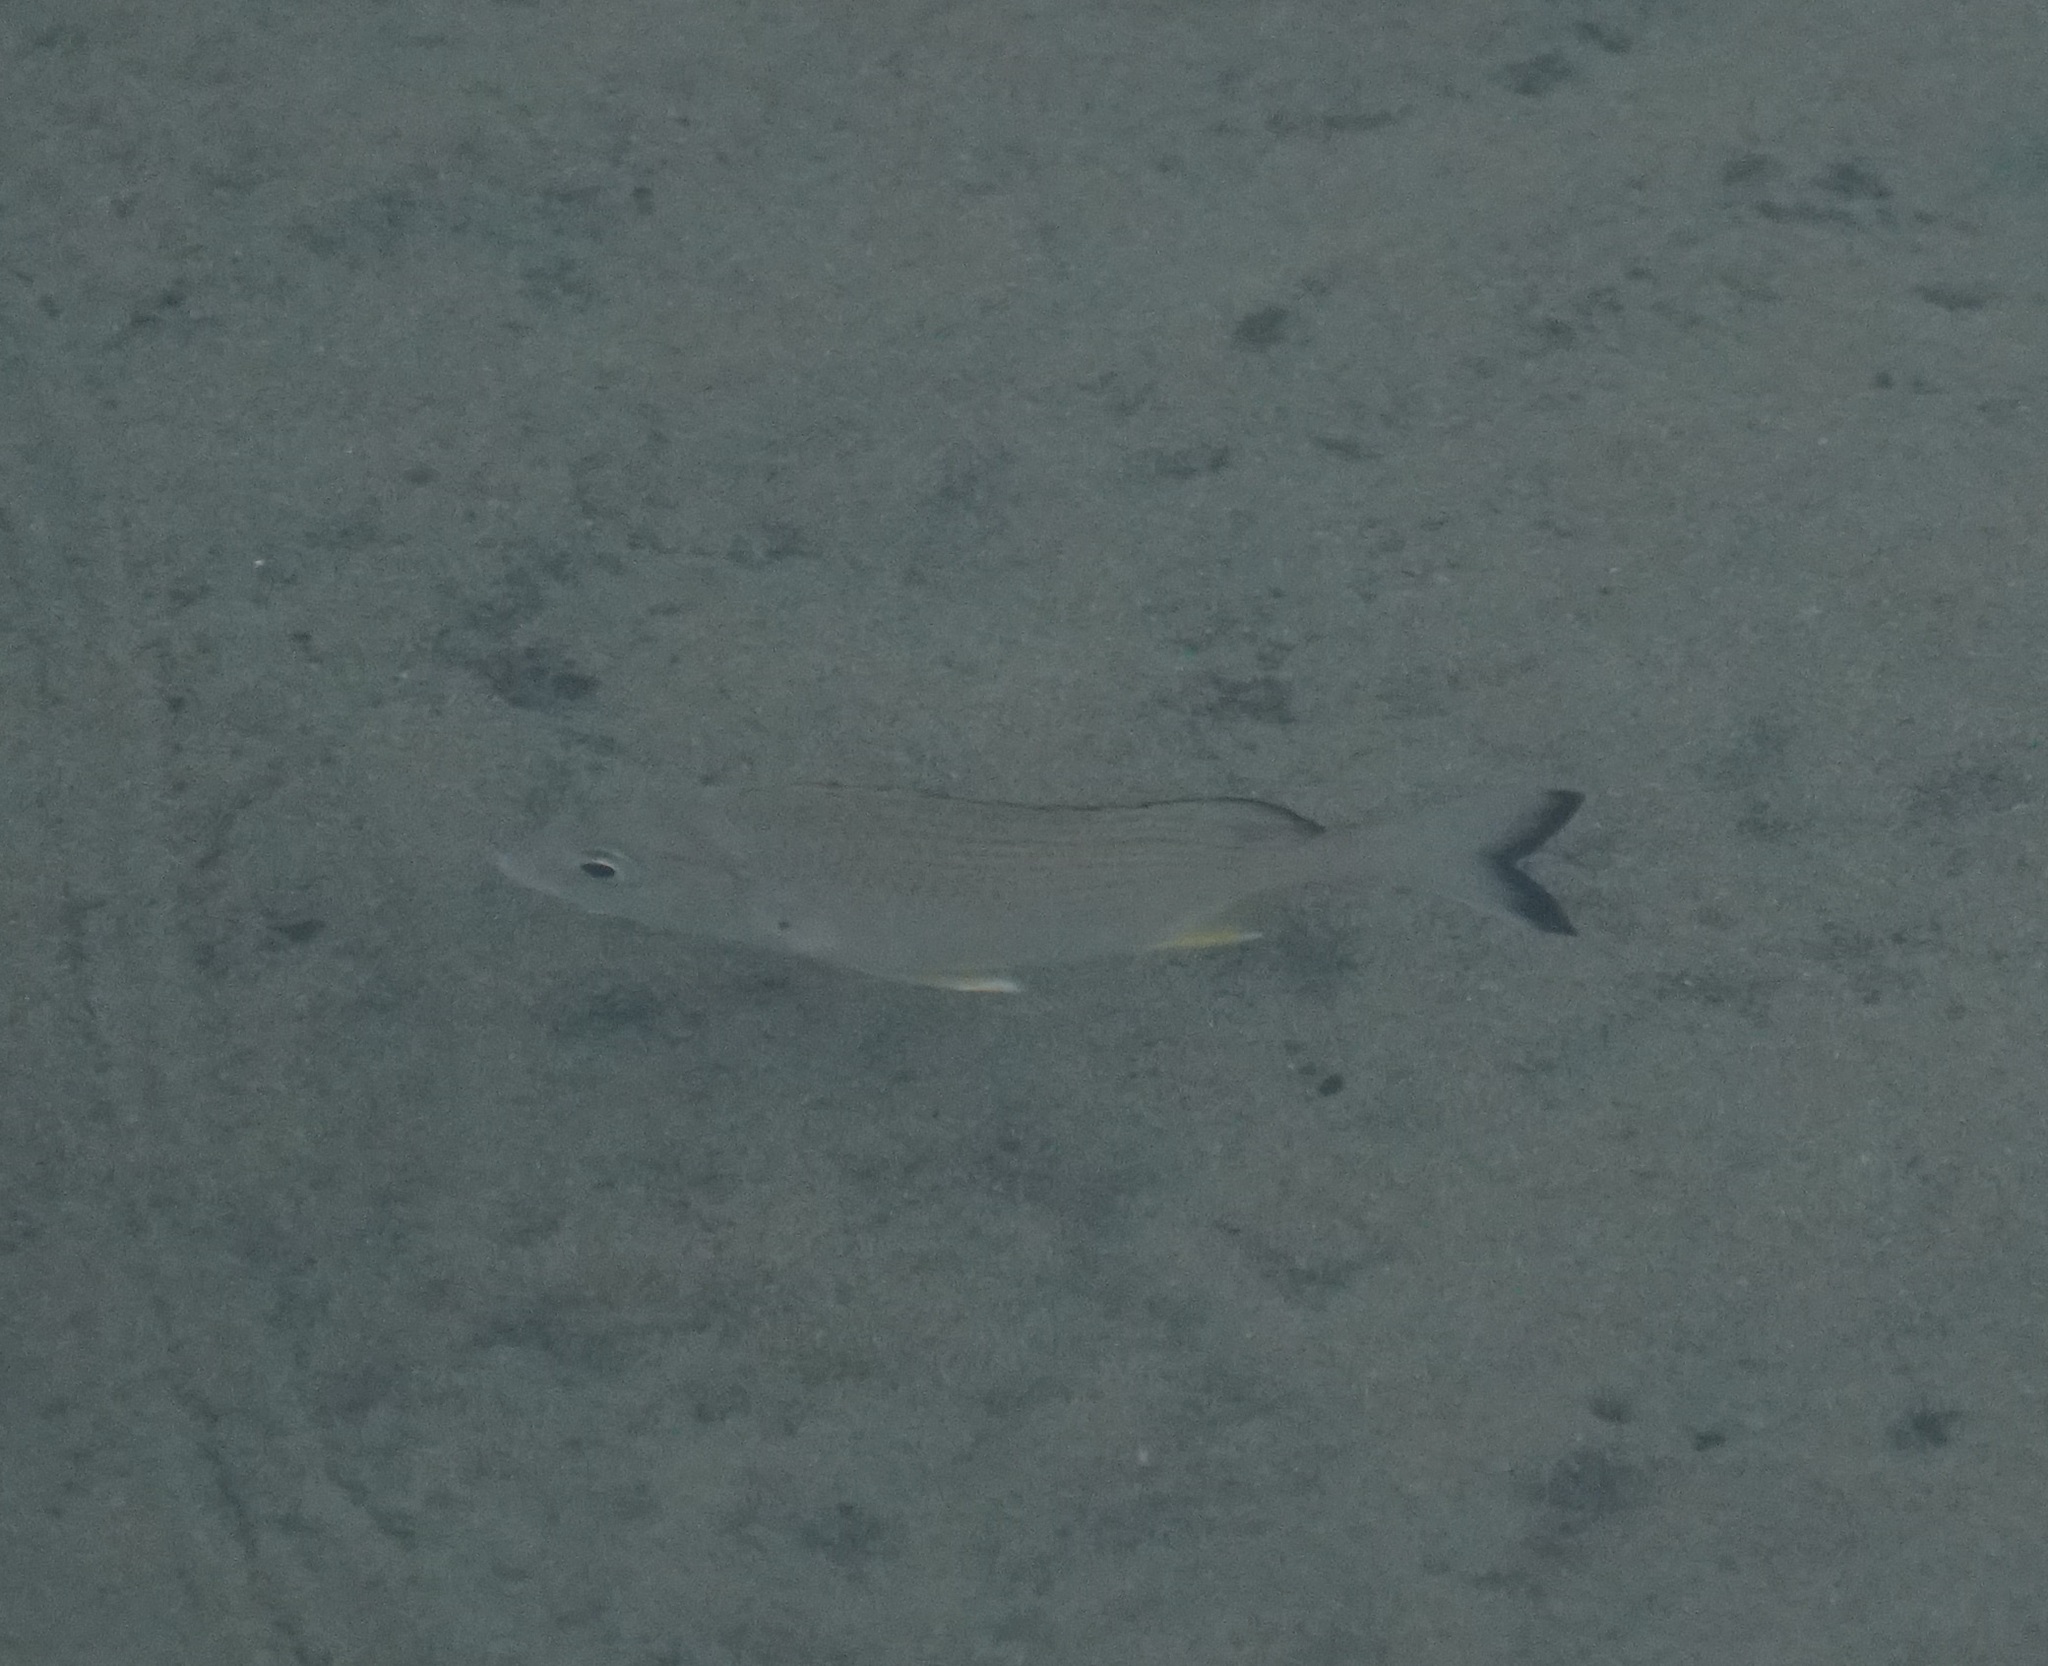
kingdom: Animalia
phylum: Chordata
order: Perciformes
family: Sparidae
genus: Acanthopagrus
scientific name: Acanthopagrus australis
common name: Surf bream
